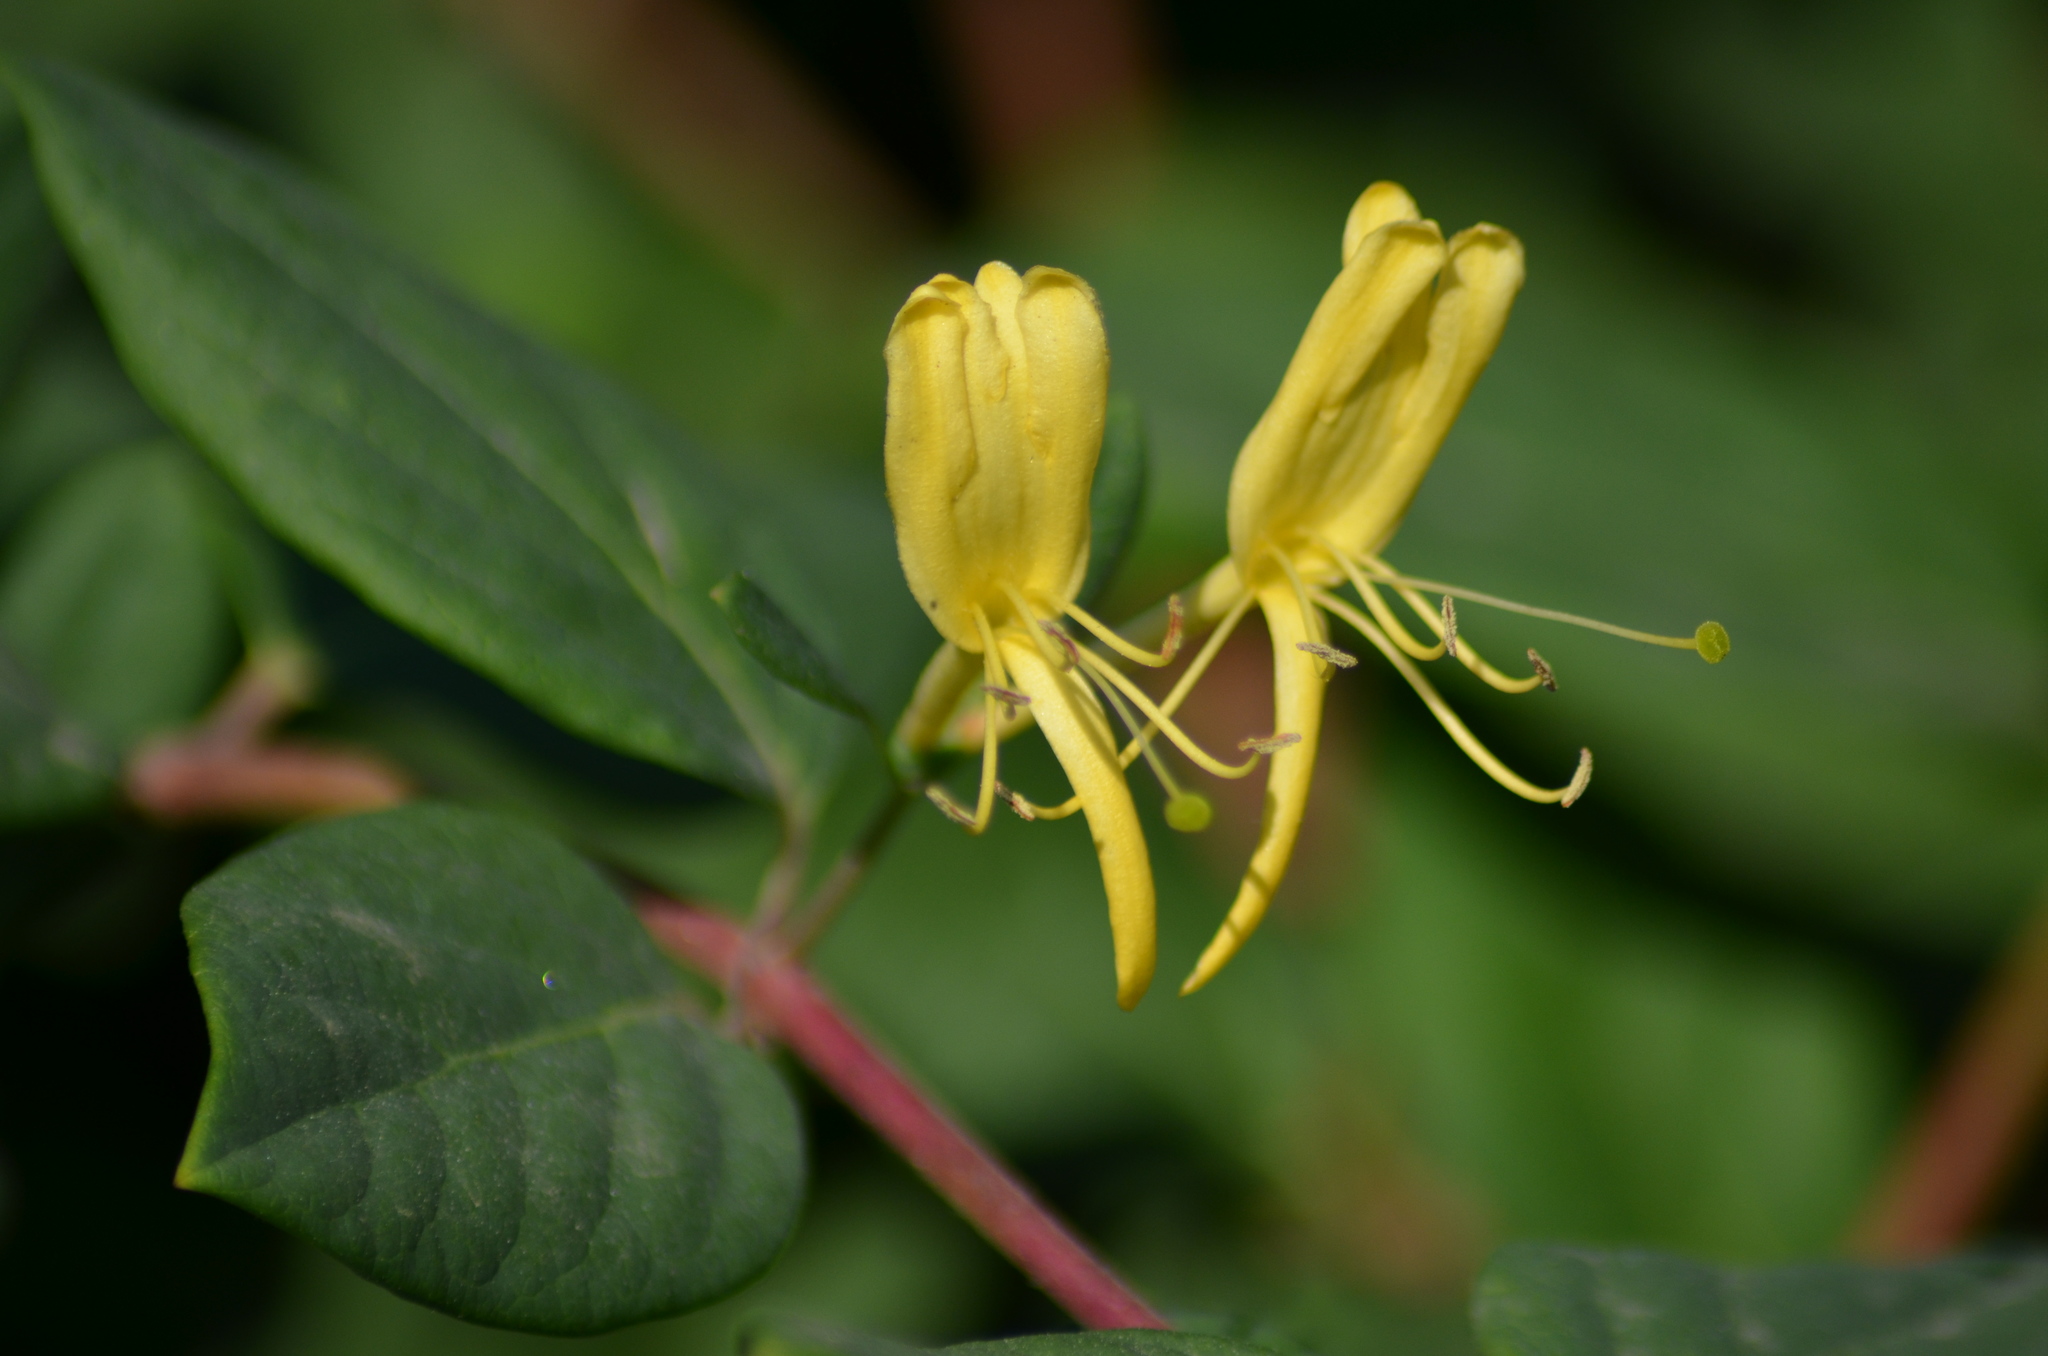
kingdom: Plantae
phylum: Tracheophyta
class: Magnoliopsida
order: Dipsacales
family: Caprifoliaceae
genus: Lonicera
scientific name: Lonicera japonica
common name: Japanese honeysuckle
